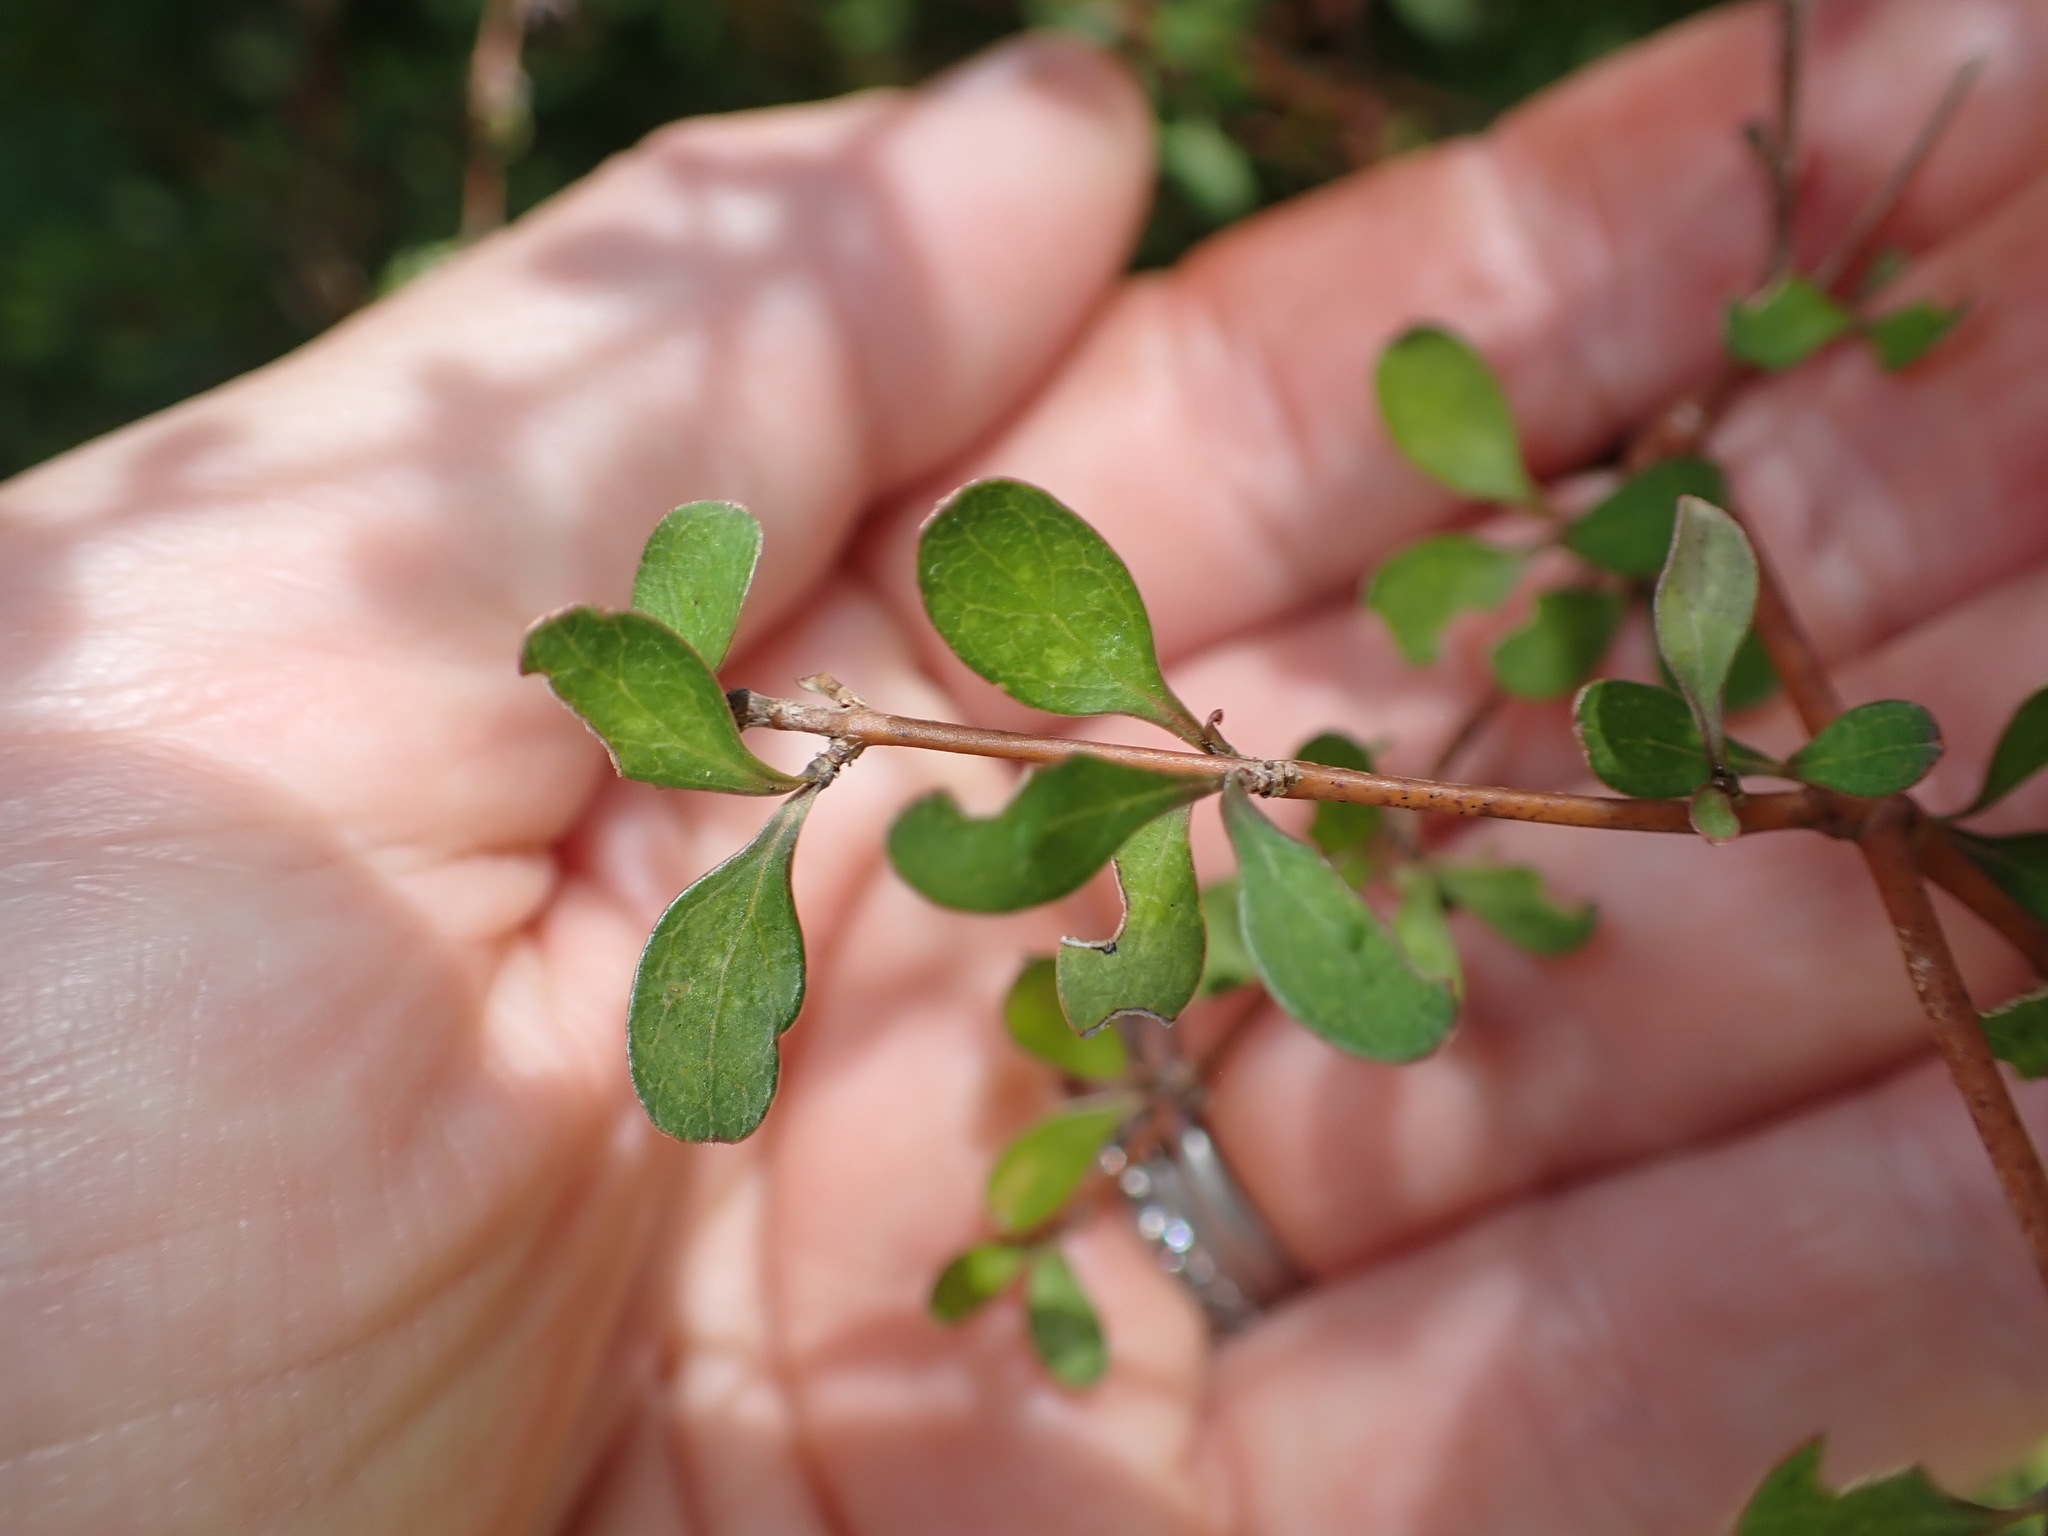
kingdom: Plantae
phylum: Tracheophyta
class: Magnoliopsida
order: Gentianales
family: Rubiaceae
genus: Coprosma
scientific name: Coprosma rigida
